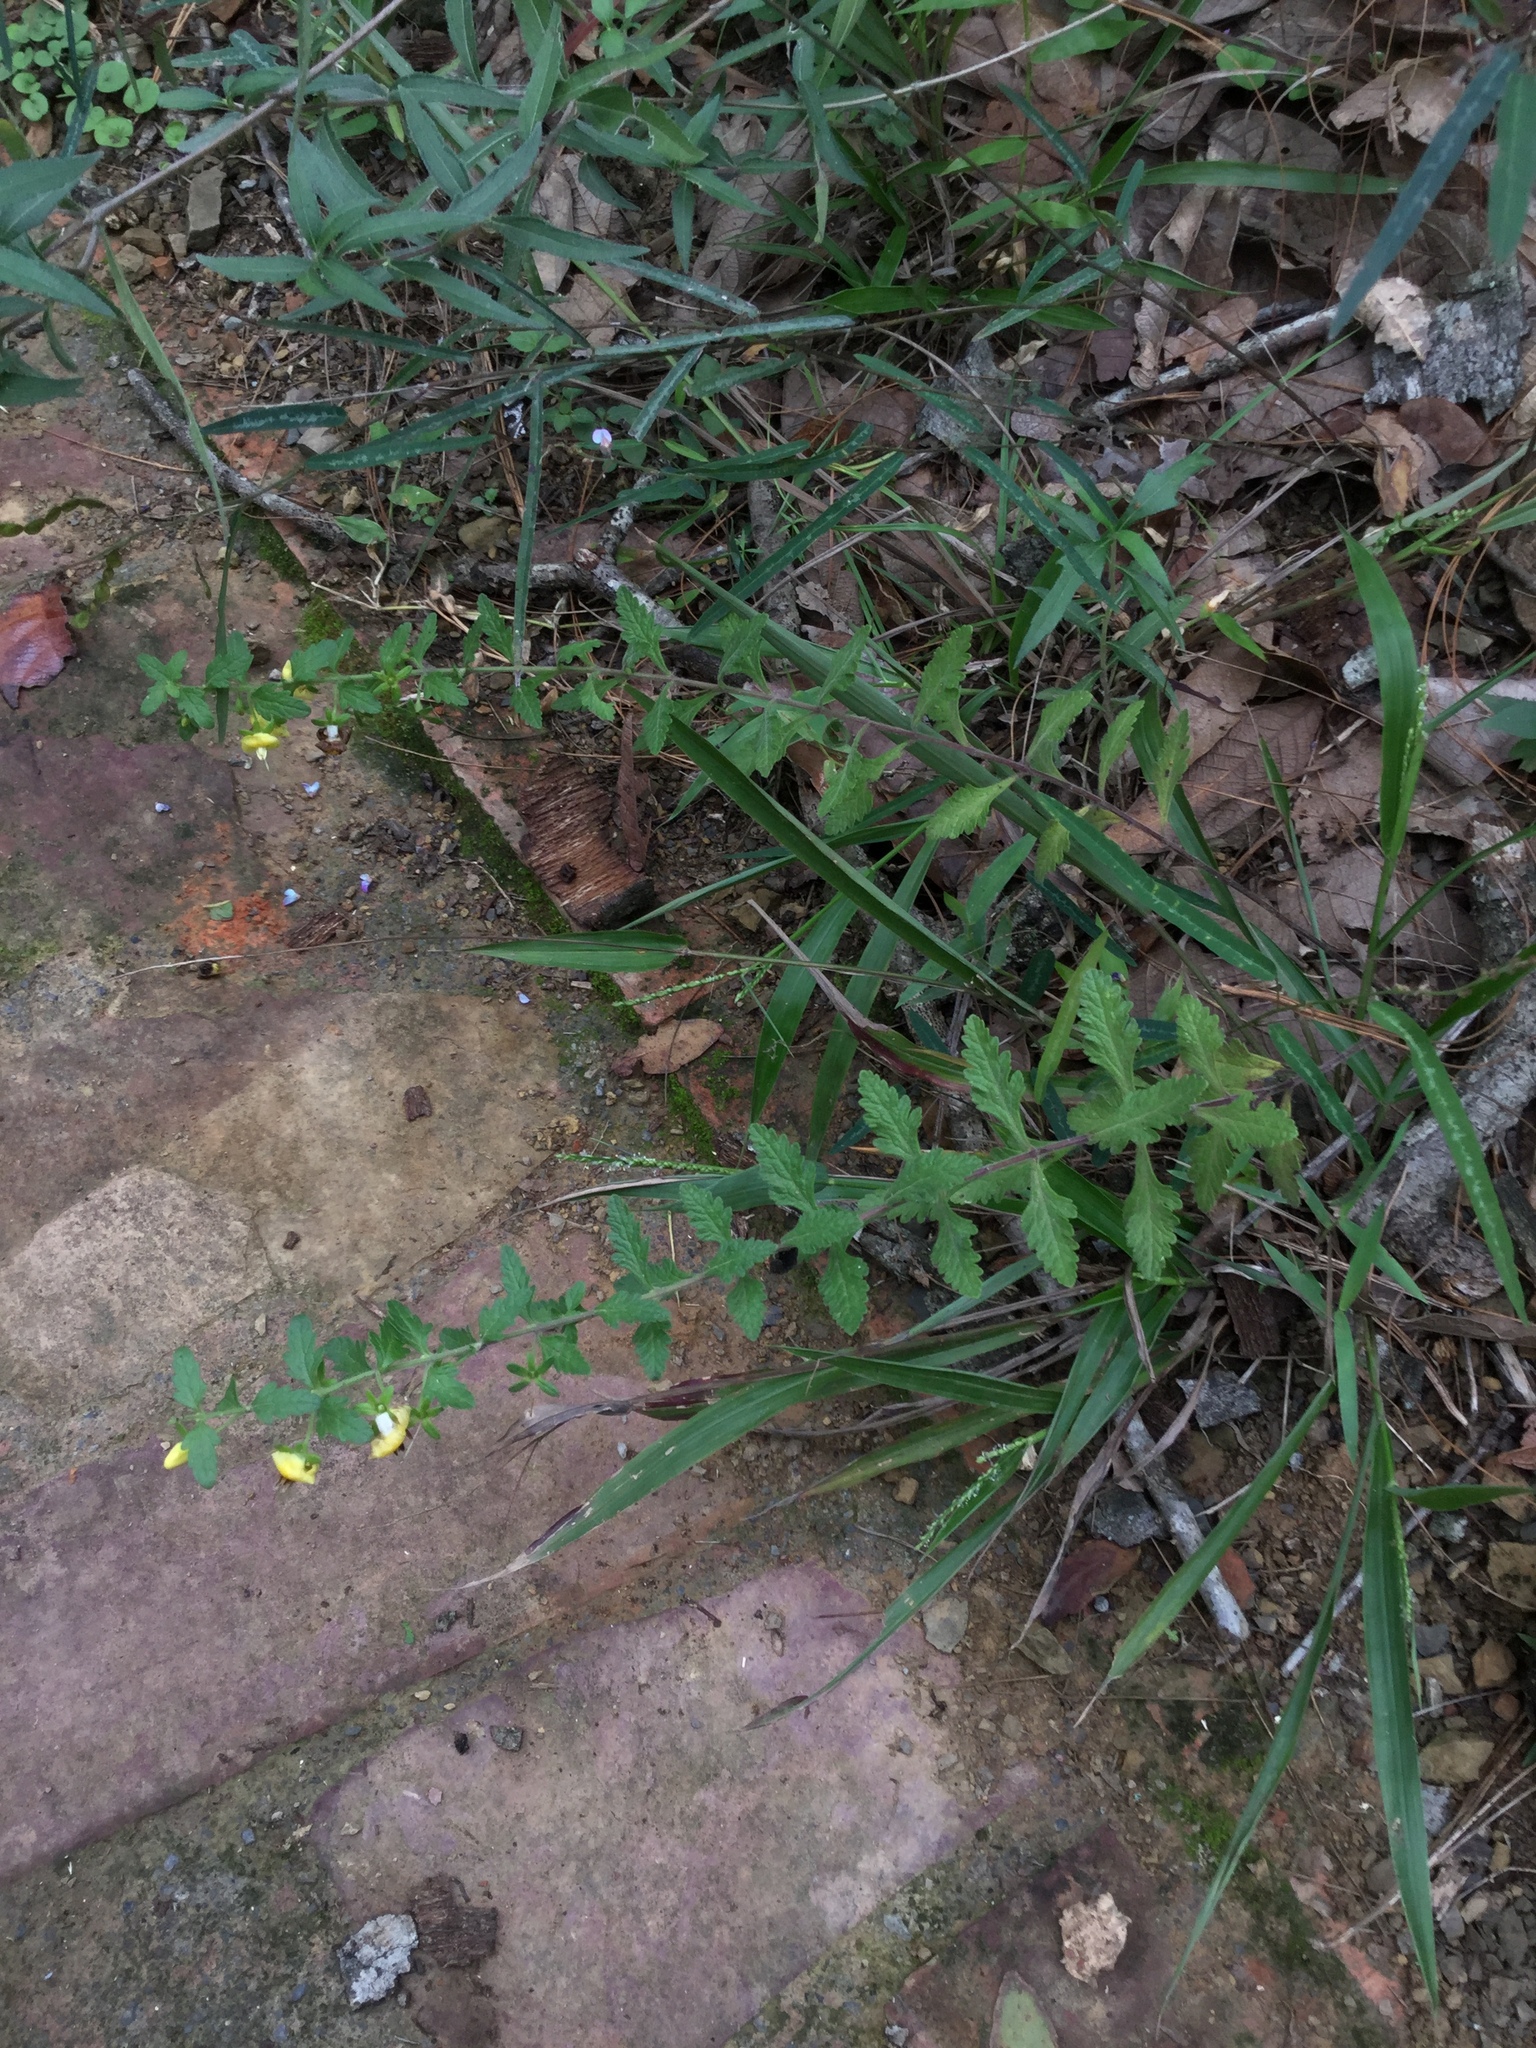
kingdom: Plantae
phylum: Tracheophyta
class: Magnoliopsida
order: Lamiales
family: Orobanchaceae
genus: Seymeria
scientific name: Seymeria deflexa
